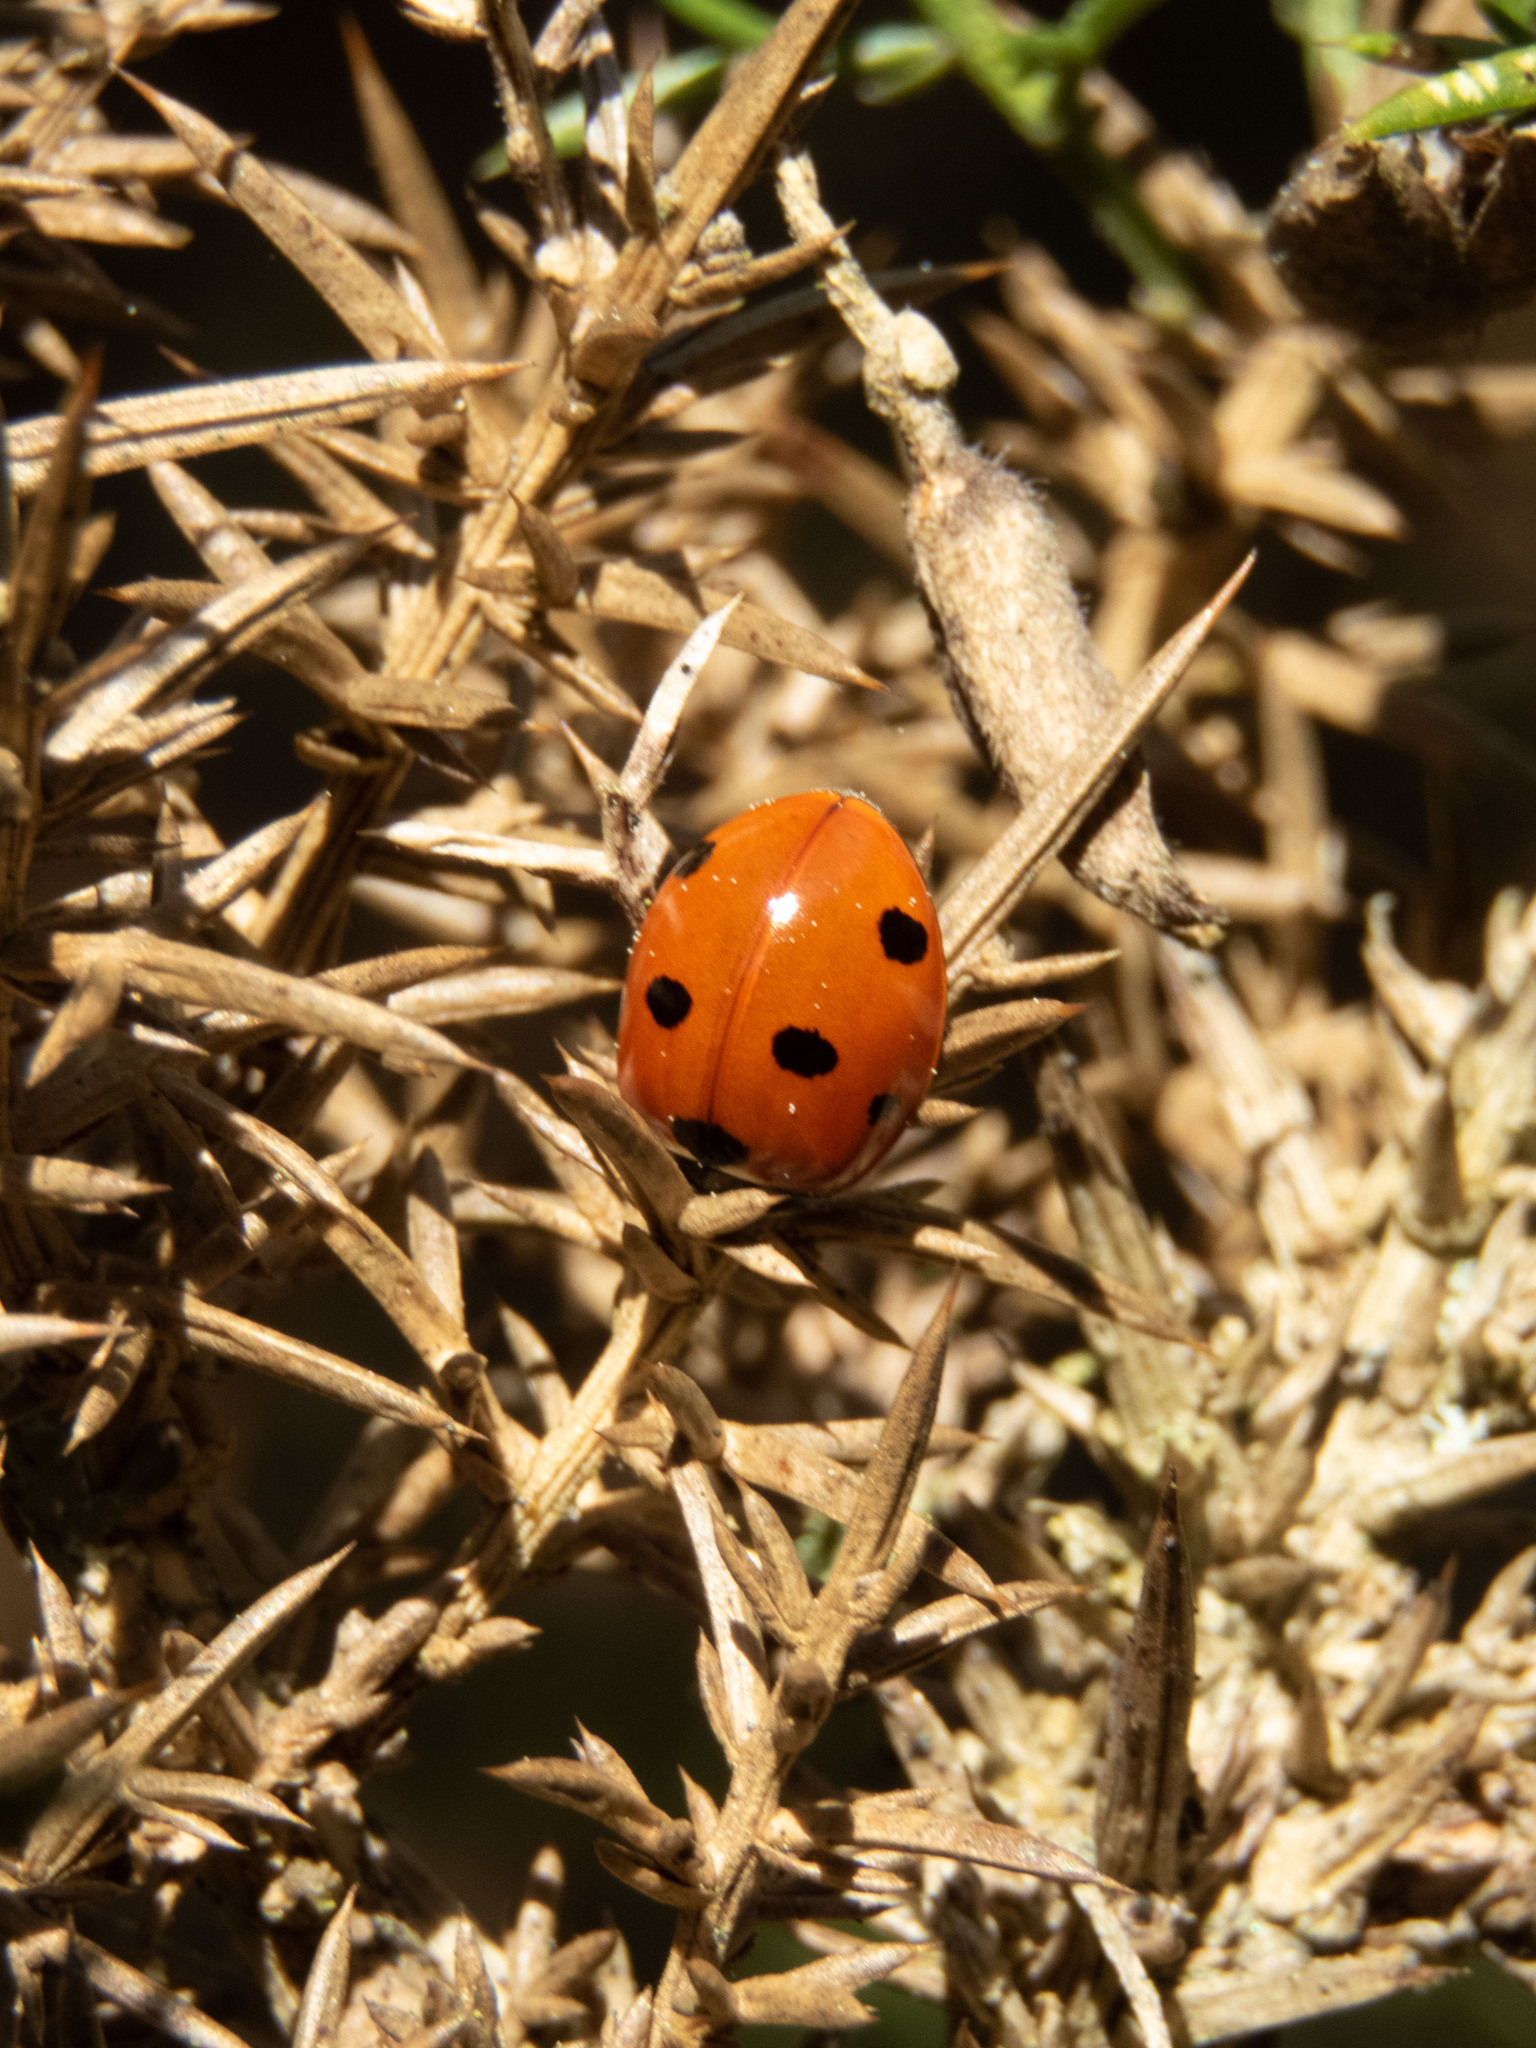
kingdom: Animalia
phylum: Arthropoda
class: Insecta
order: Coleoptera
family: Coccinellidae
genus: Coccinella
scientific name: Coccinella septempunctata
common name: Sevenspotted lady beetle
